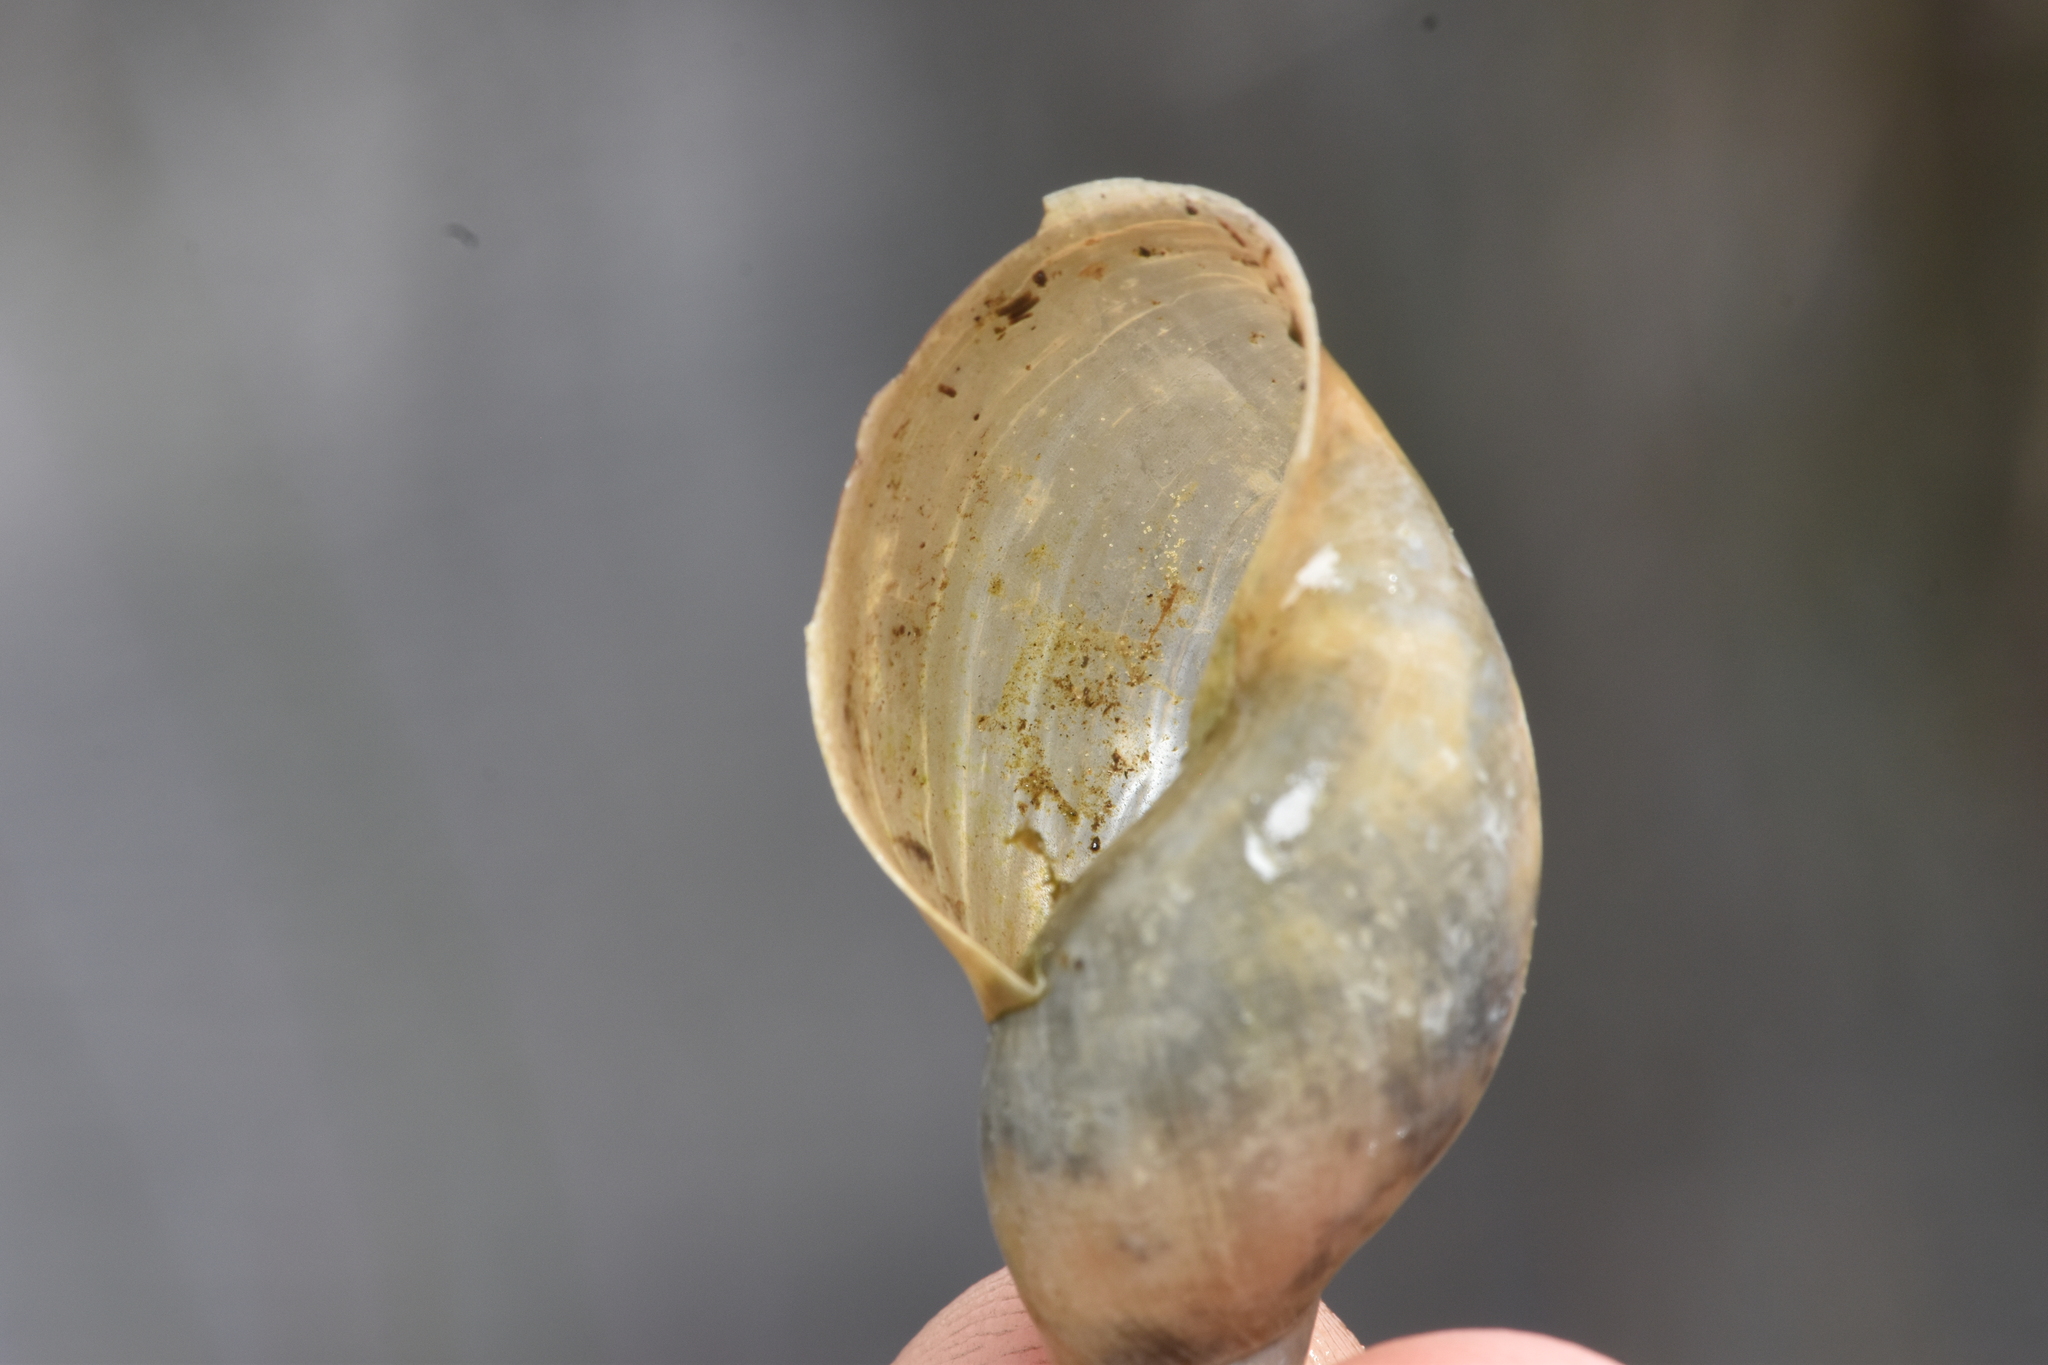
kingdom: Animalia
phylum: Mollusca
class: Gastropoda
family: Lymnaeidae
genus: Lymnaea
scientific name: Lymnaea stagnalis
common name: Great pond snail
